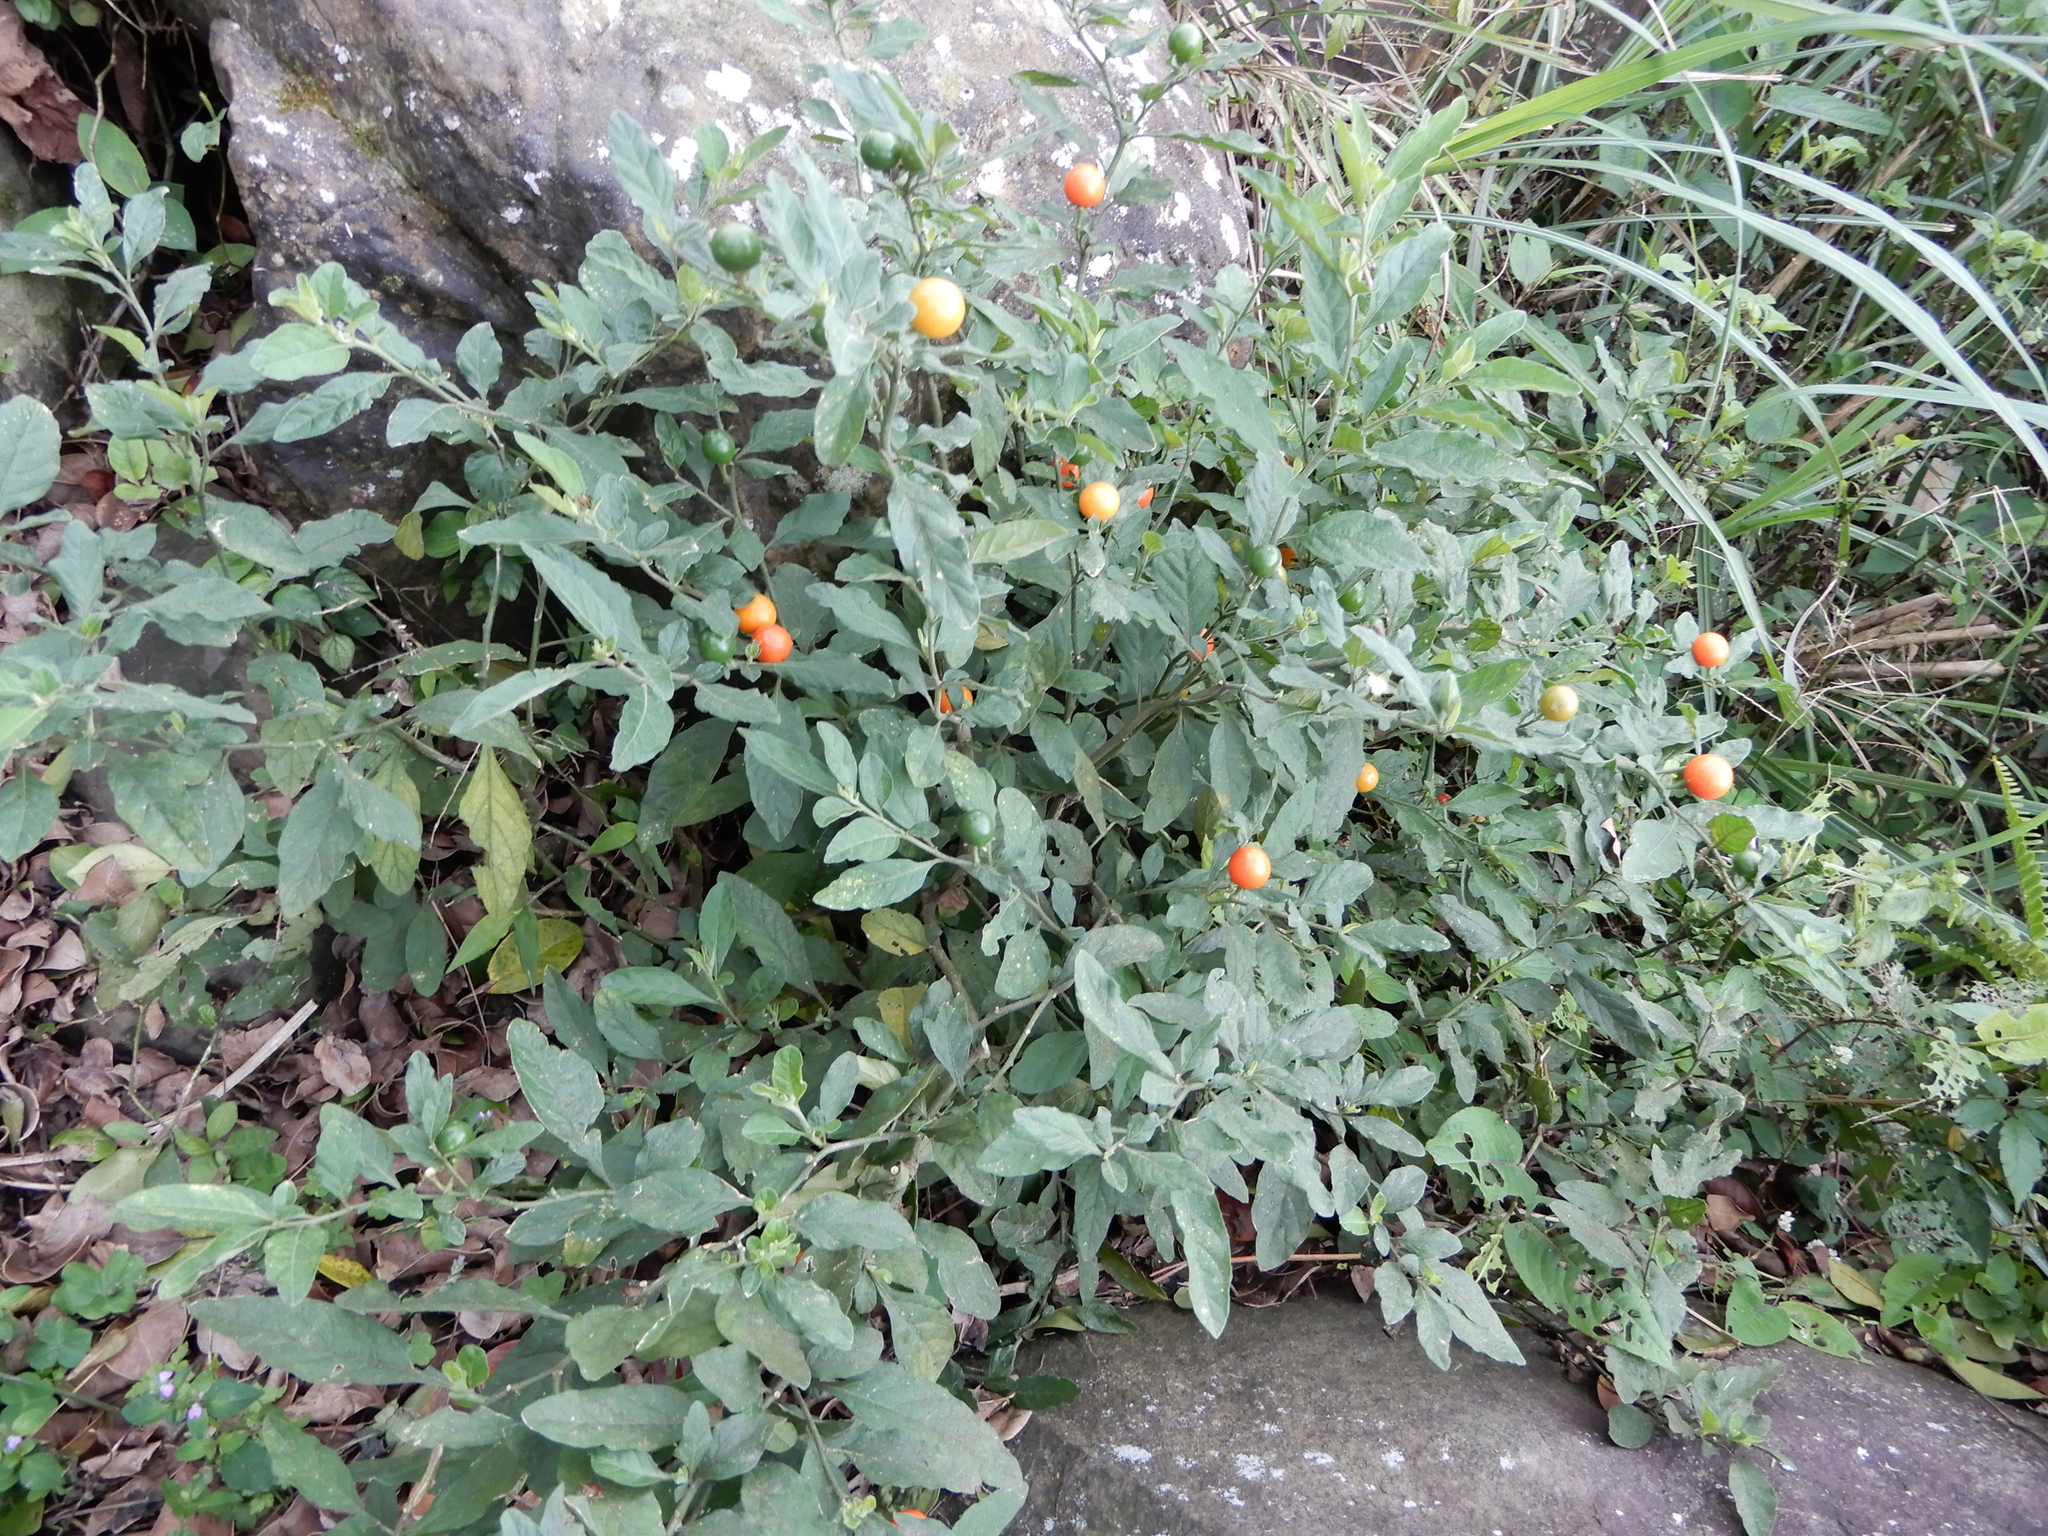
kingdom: Plantae
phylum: Tracheophyta
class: Magnoliopsida
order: Solanales
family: Solanaceae
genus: Solanum
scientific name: Solanum pseudocapsicum
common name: Jerusalem cherry
